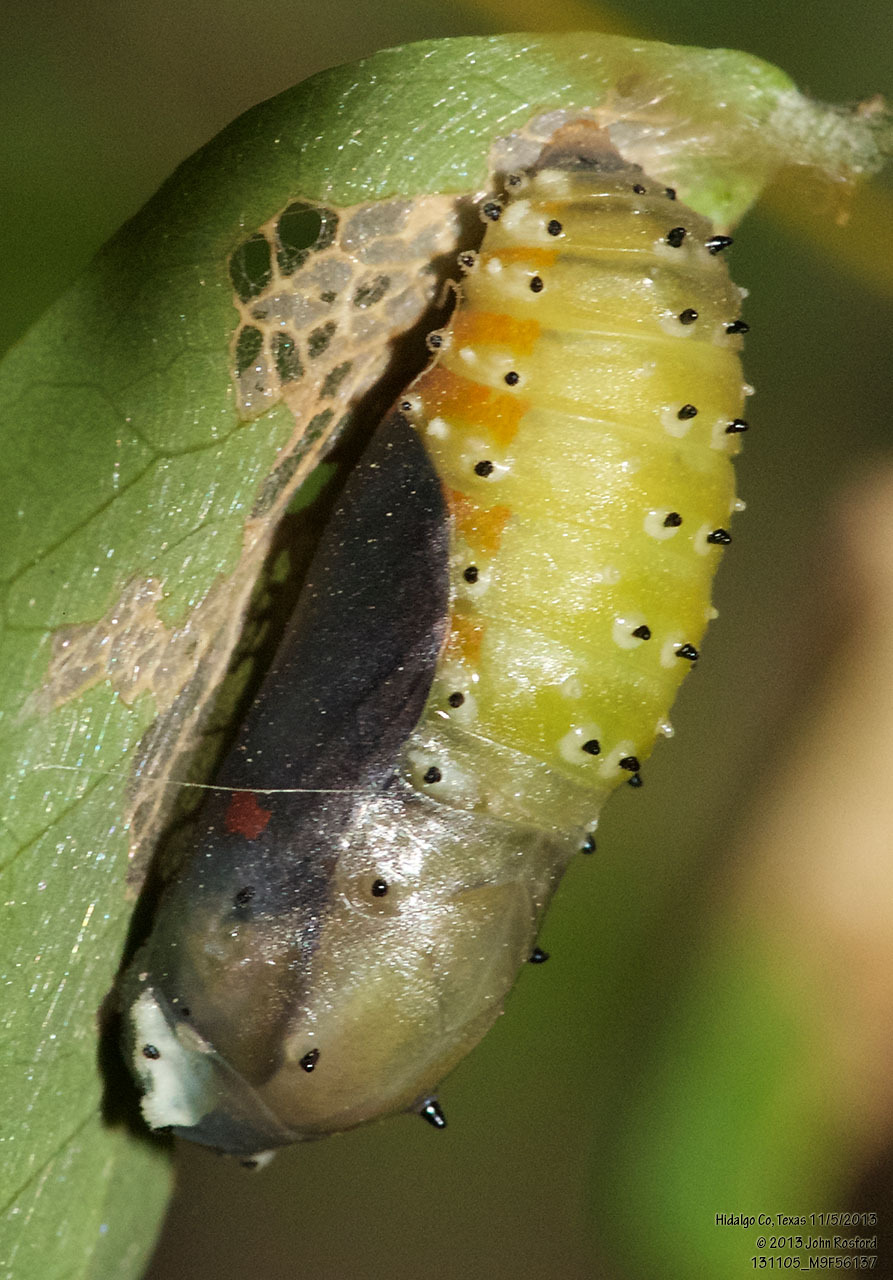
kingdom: Animalia
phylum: Arthropoda
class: Insecta
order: Lepidoptera
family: Lycaenidae
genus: Melanis
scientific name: Melanis pixe
